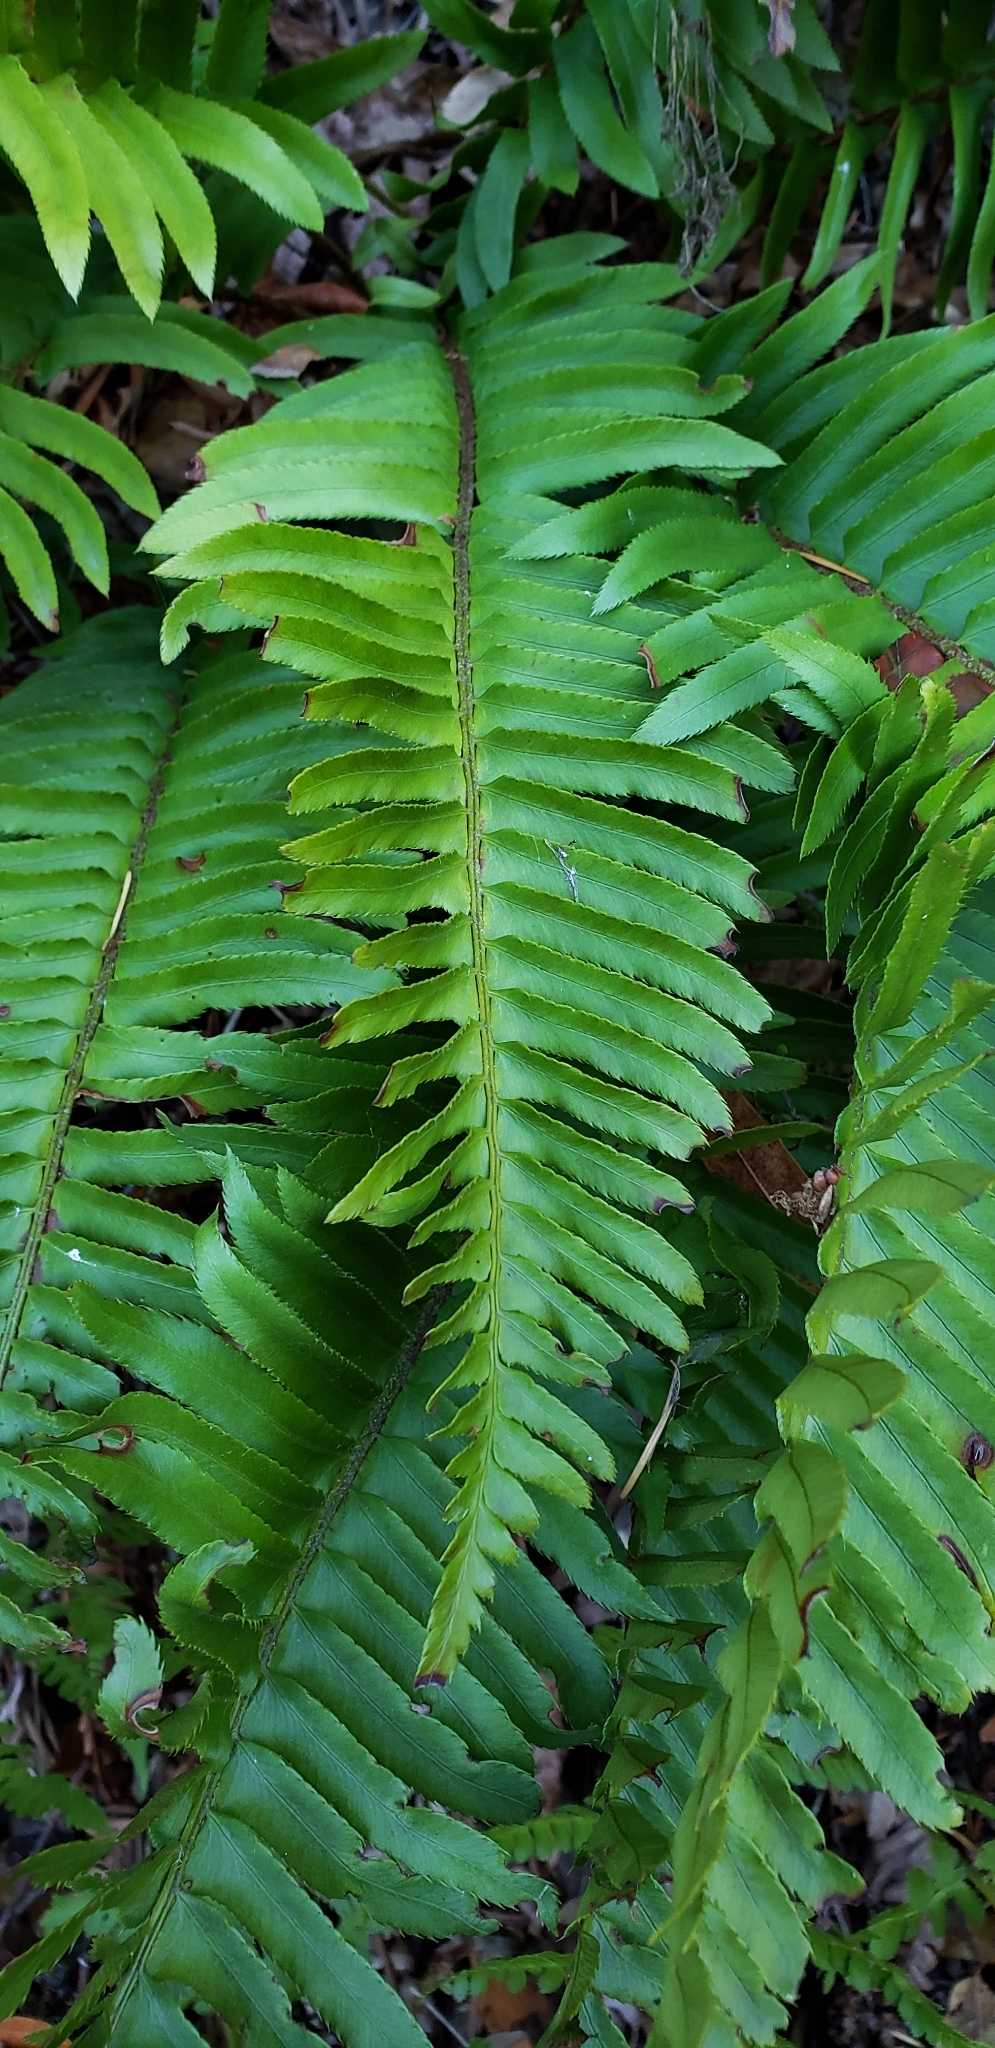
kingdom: Plantae
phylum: Tracheophyta
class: Polypodiopsida
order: Polypodiales
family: Dryopteridaceae
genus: Polystichum
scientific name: Polystichum munitum
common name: Western sword-fern
